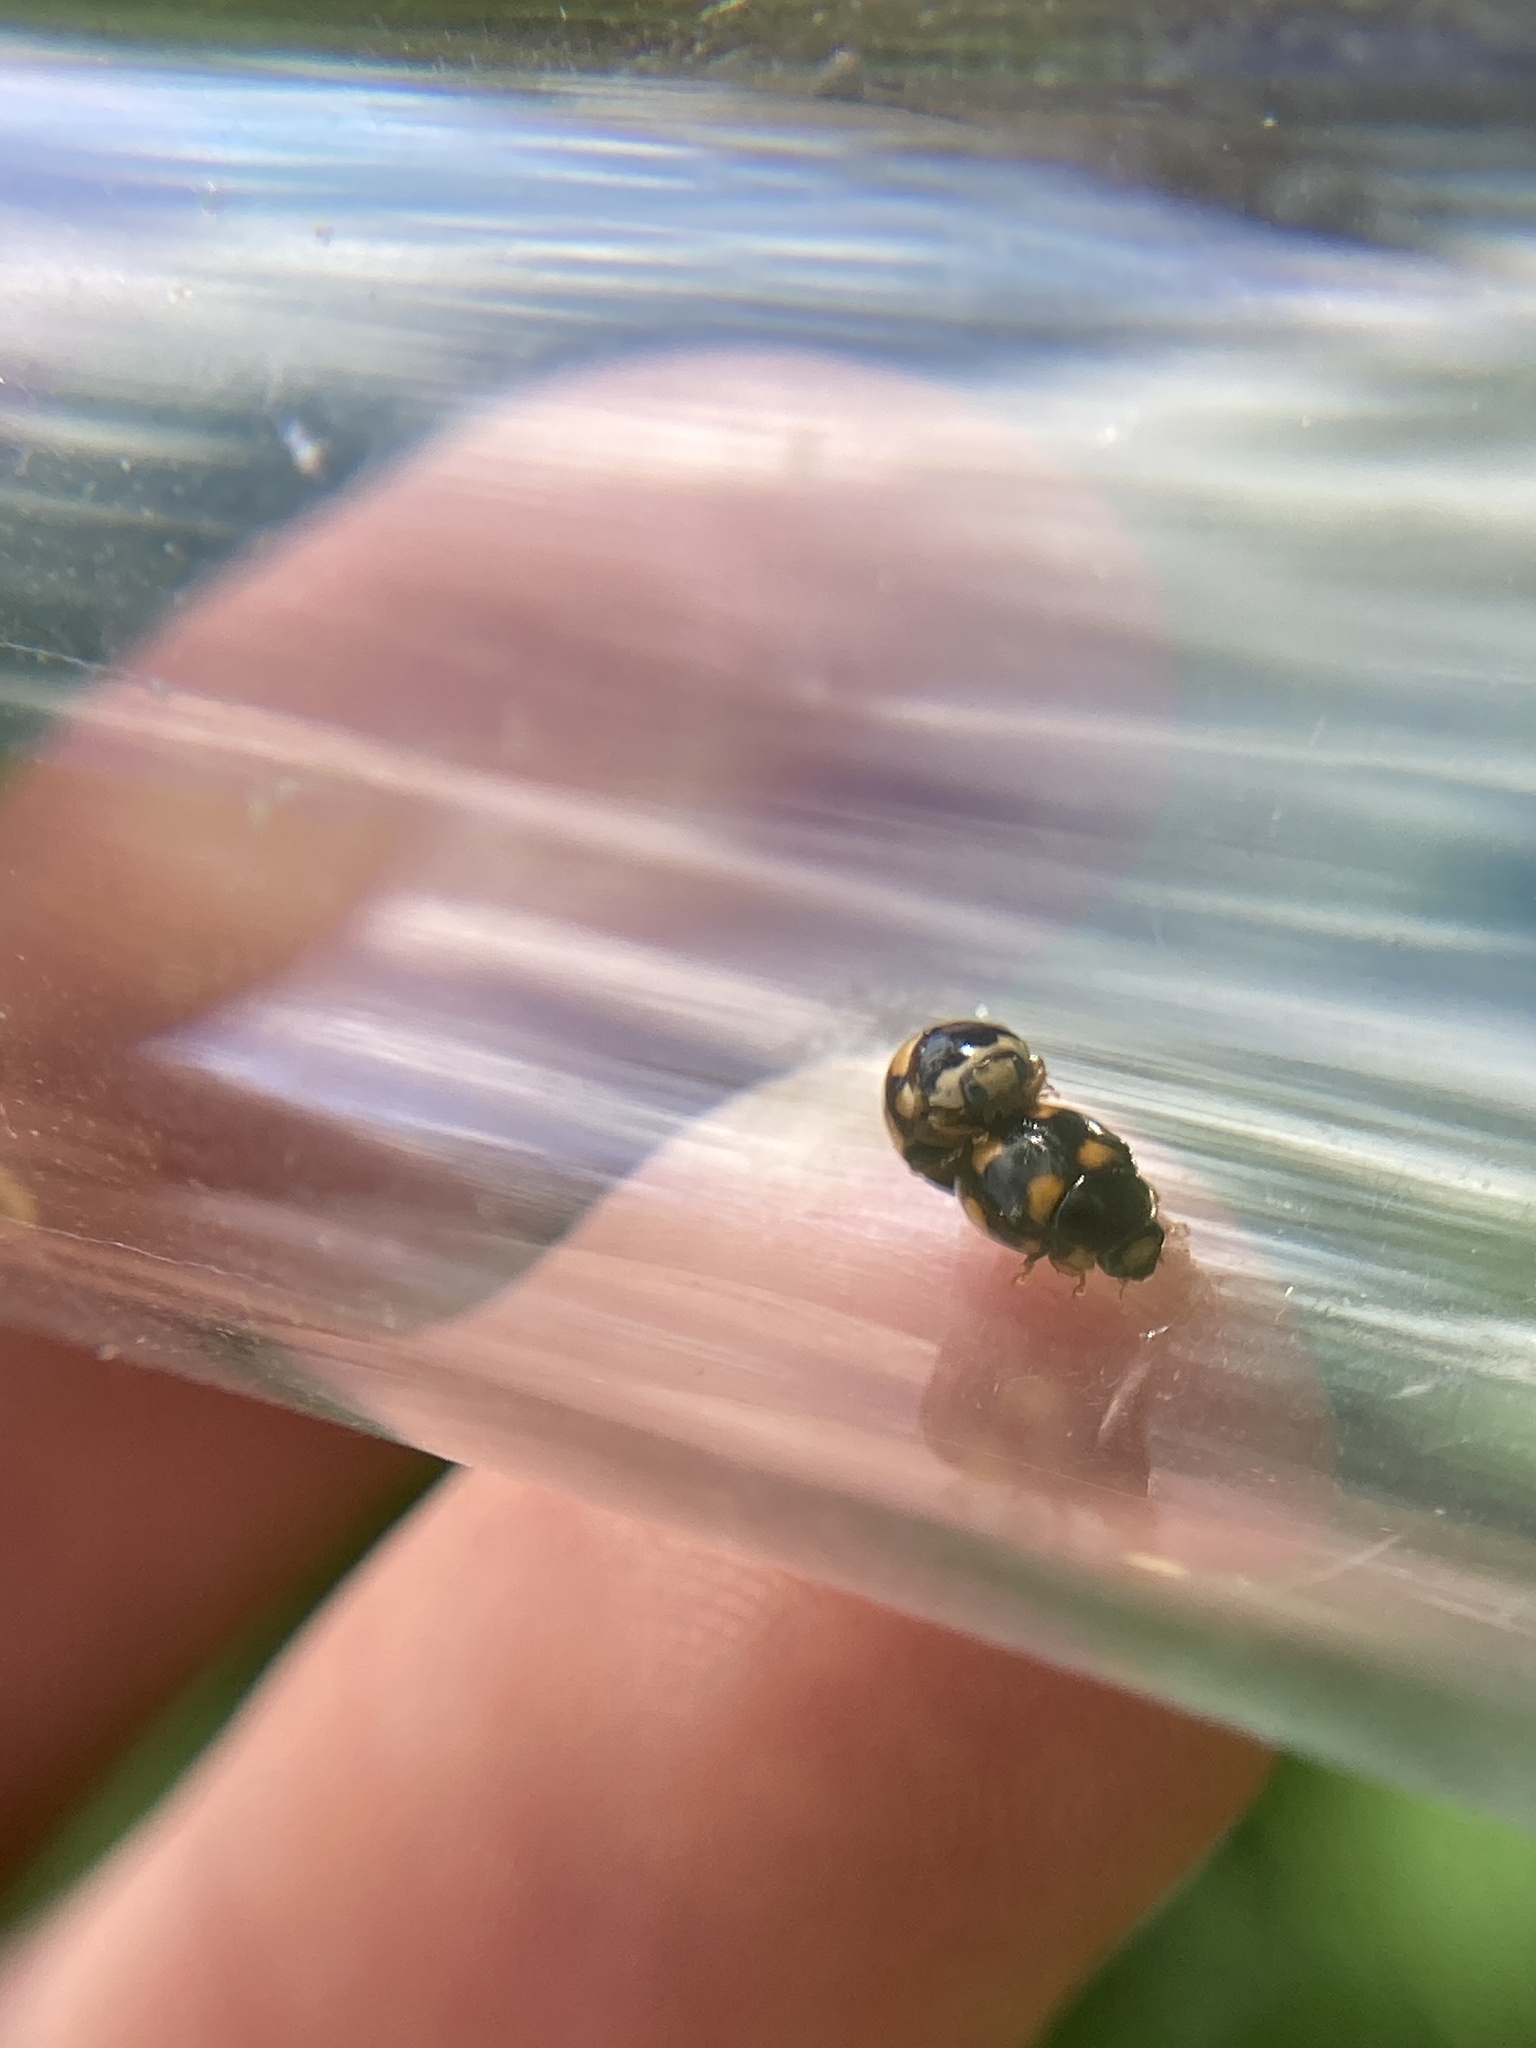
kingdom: Animalia
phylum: Arthropoda
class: Insecta
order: Coleoptera
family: Coccinellidae
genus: Brachiacantha
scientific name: Brachiacantha ursina
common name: Ursine spurleg lady beetle
